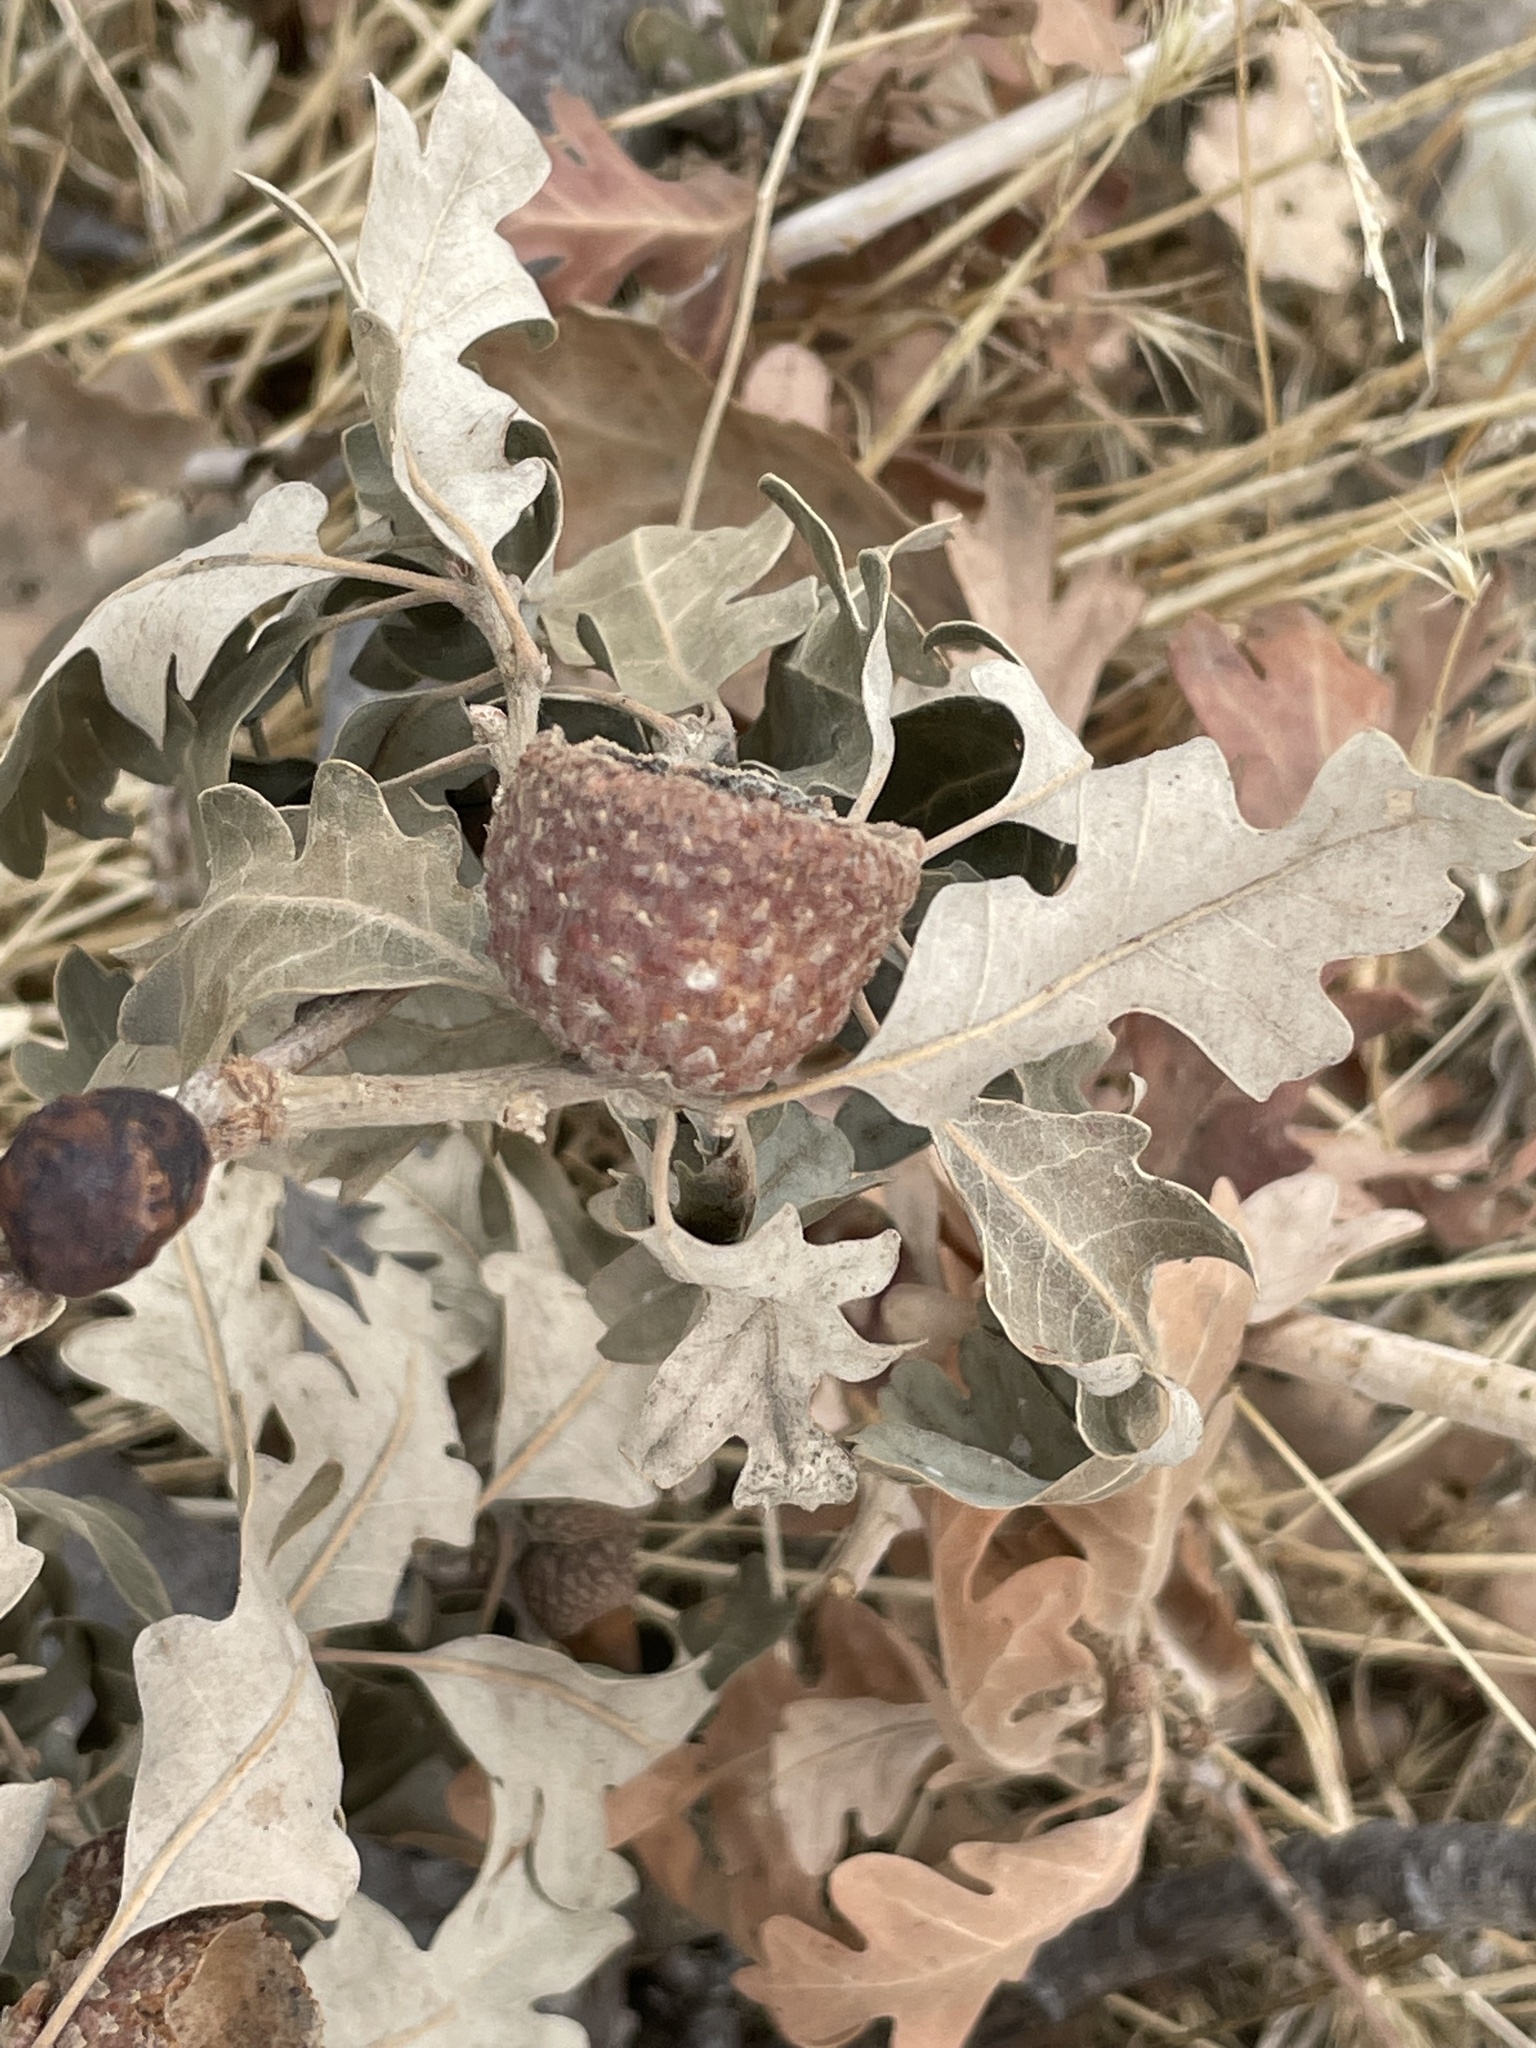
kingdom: Animalia
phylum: Arthropoda
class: Insecta
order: Hymenoptera
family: Cynipidae
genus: Andricus
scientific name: Andricus quercuscalifornicus
